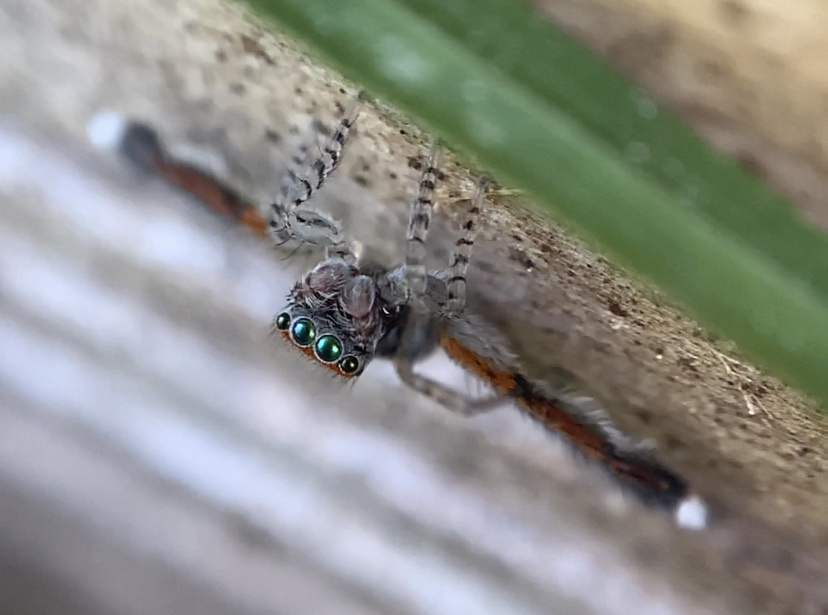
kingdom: Animalia
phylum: Arthropoda
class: Arachnida
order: Araneae
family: Salticidae
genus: Saitis
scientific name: Saitis barbipes
